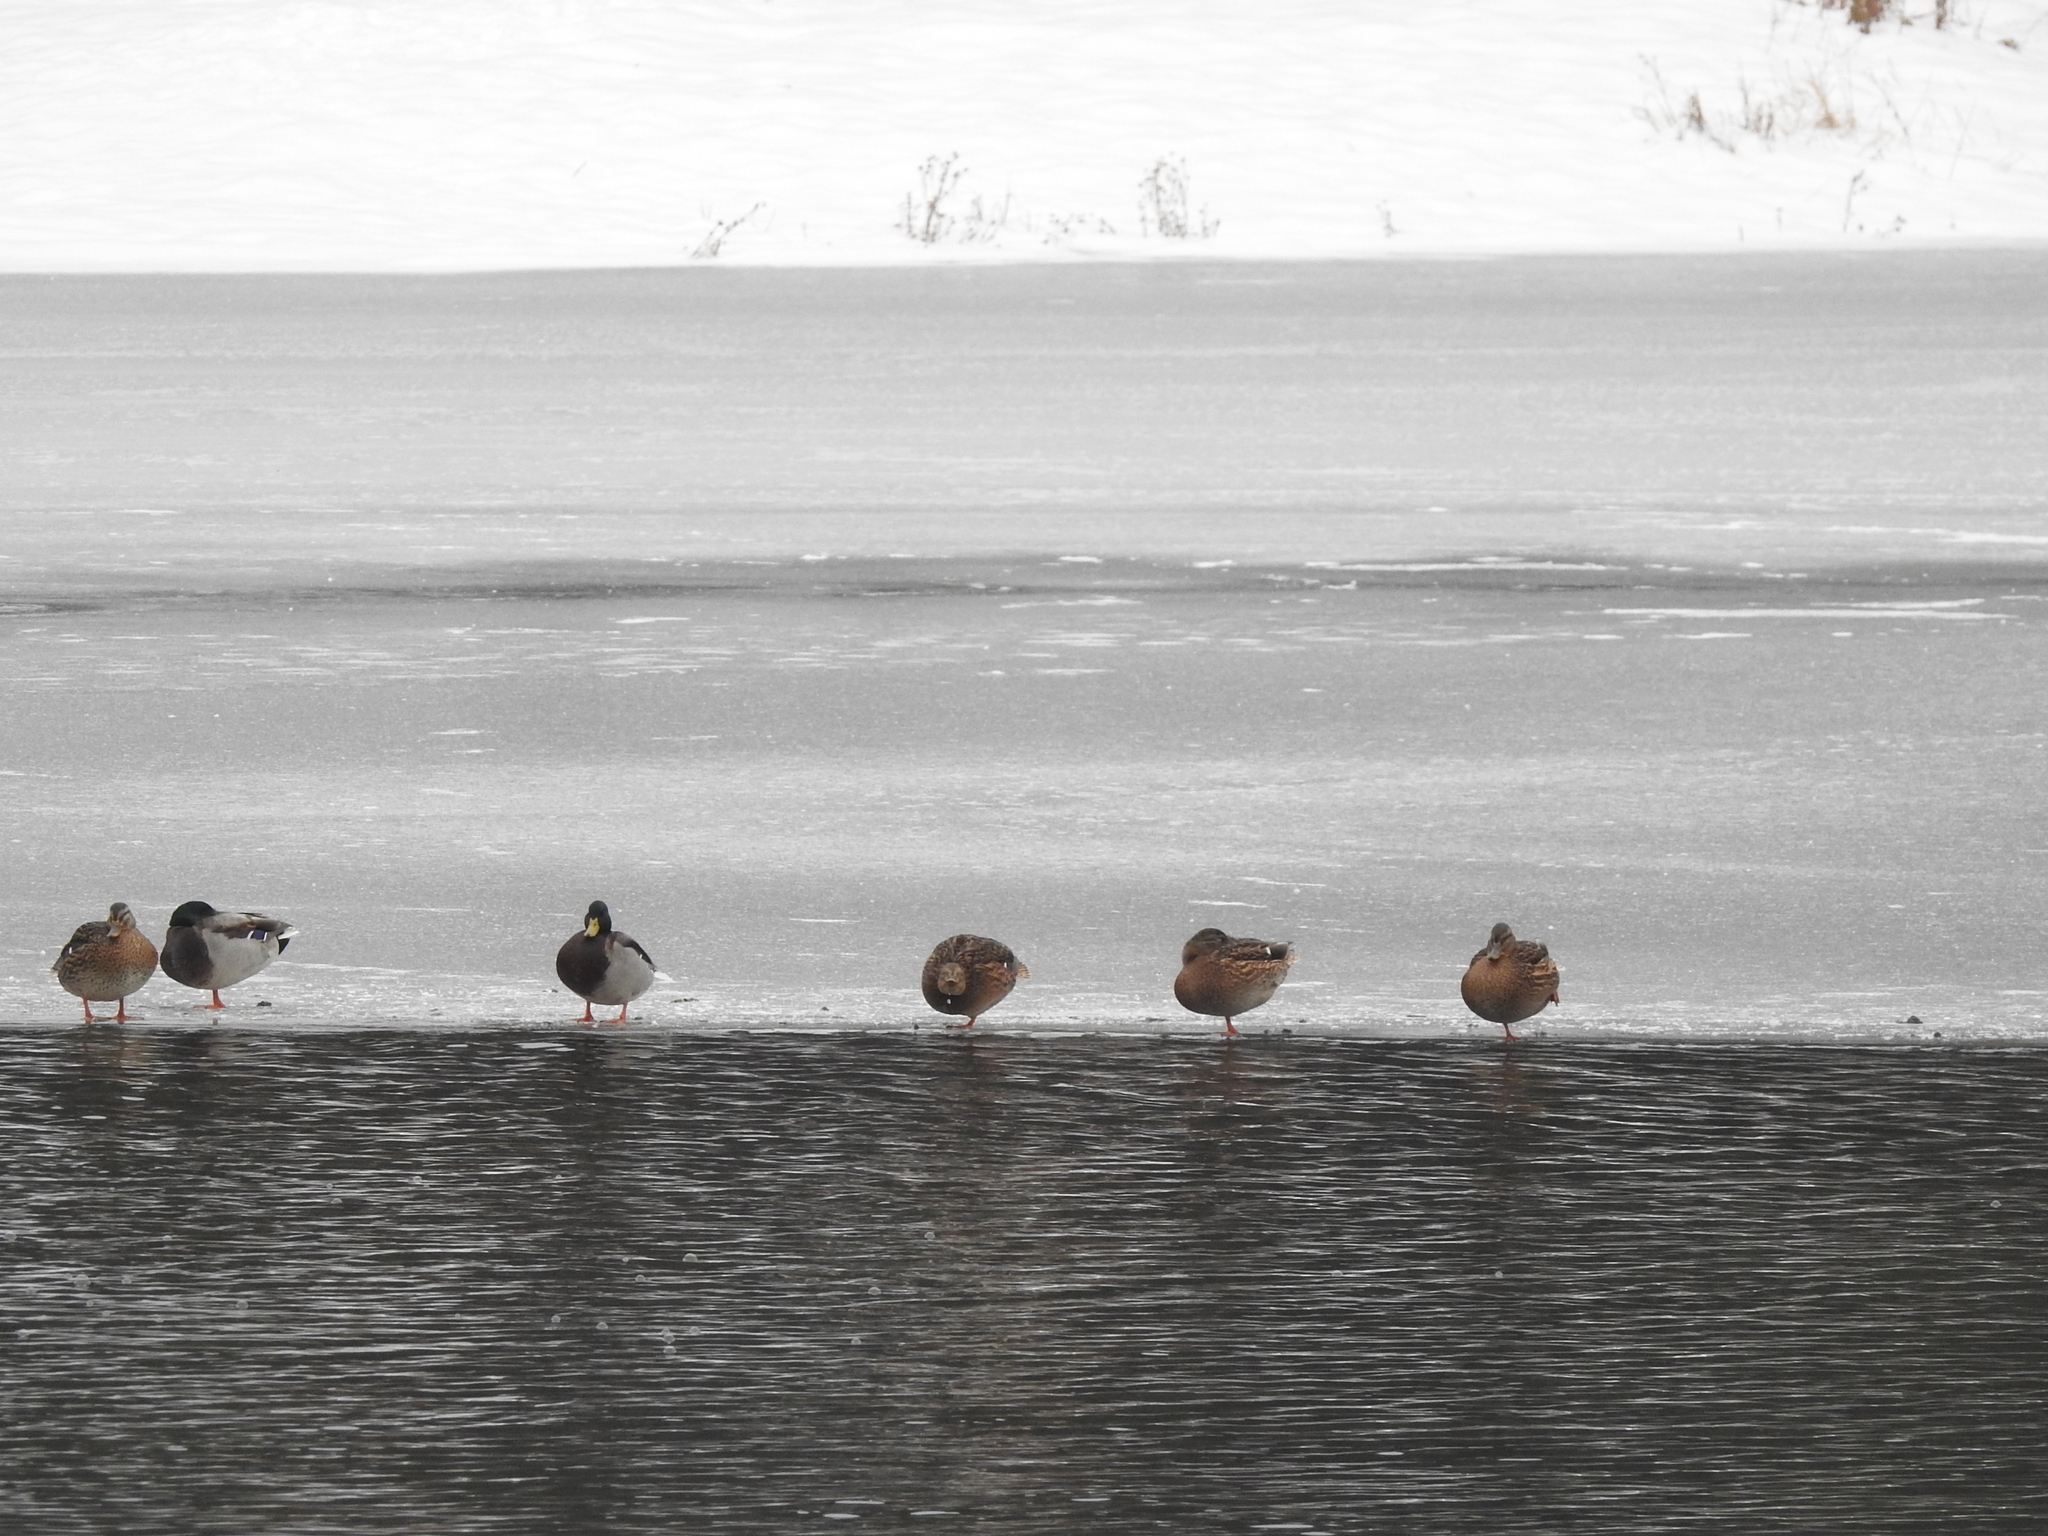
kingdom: Animalia
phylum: Chordata
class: Aves
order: Anseriformes
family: Anatidae
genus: Anas
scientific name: Anas platyrhynchos
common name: Mallard
